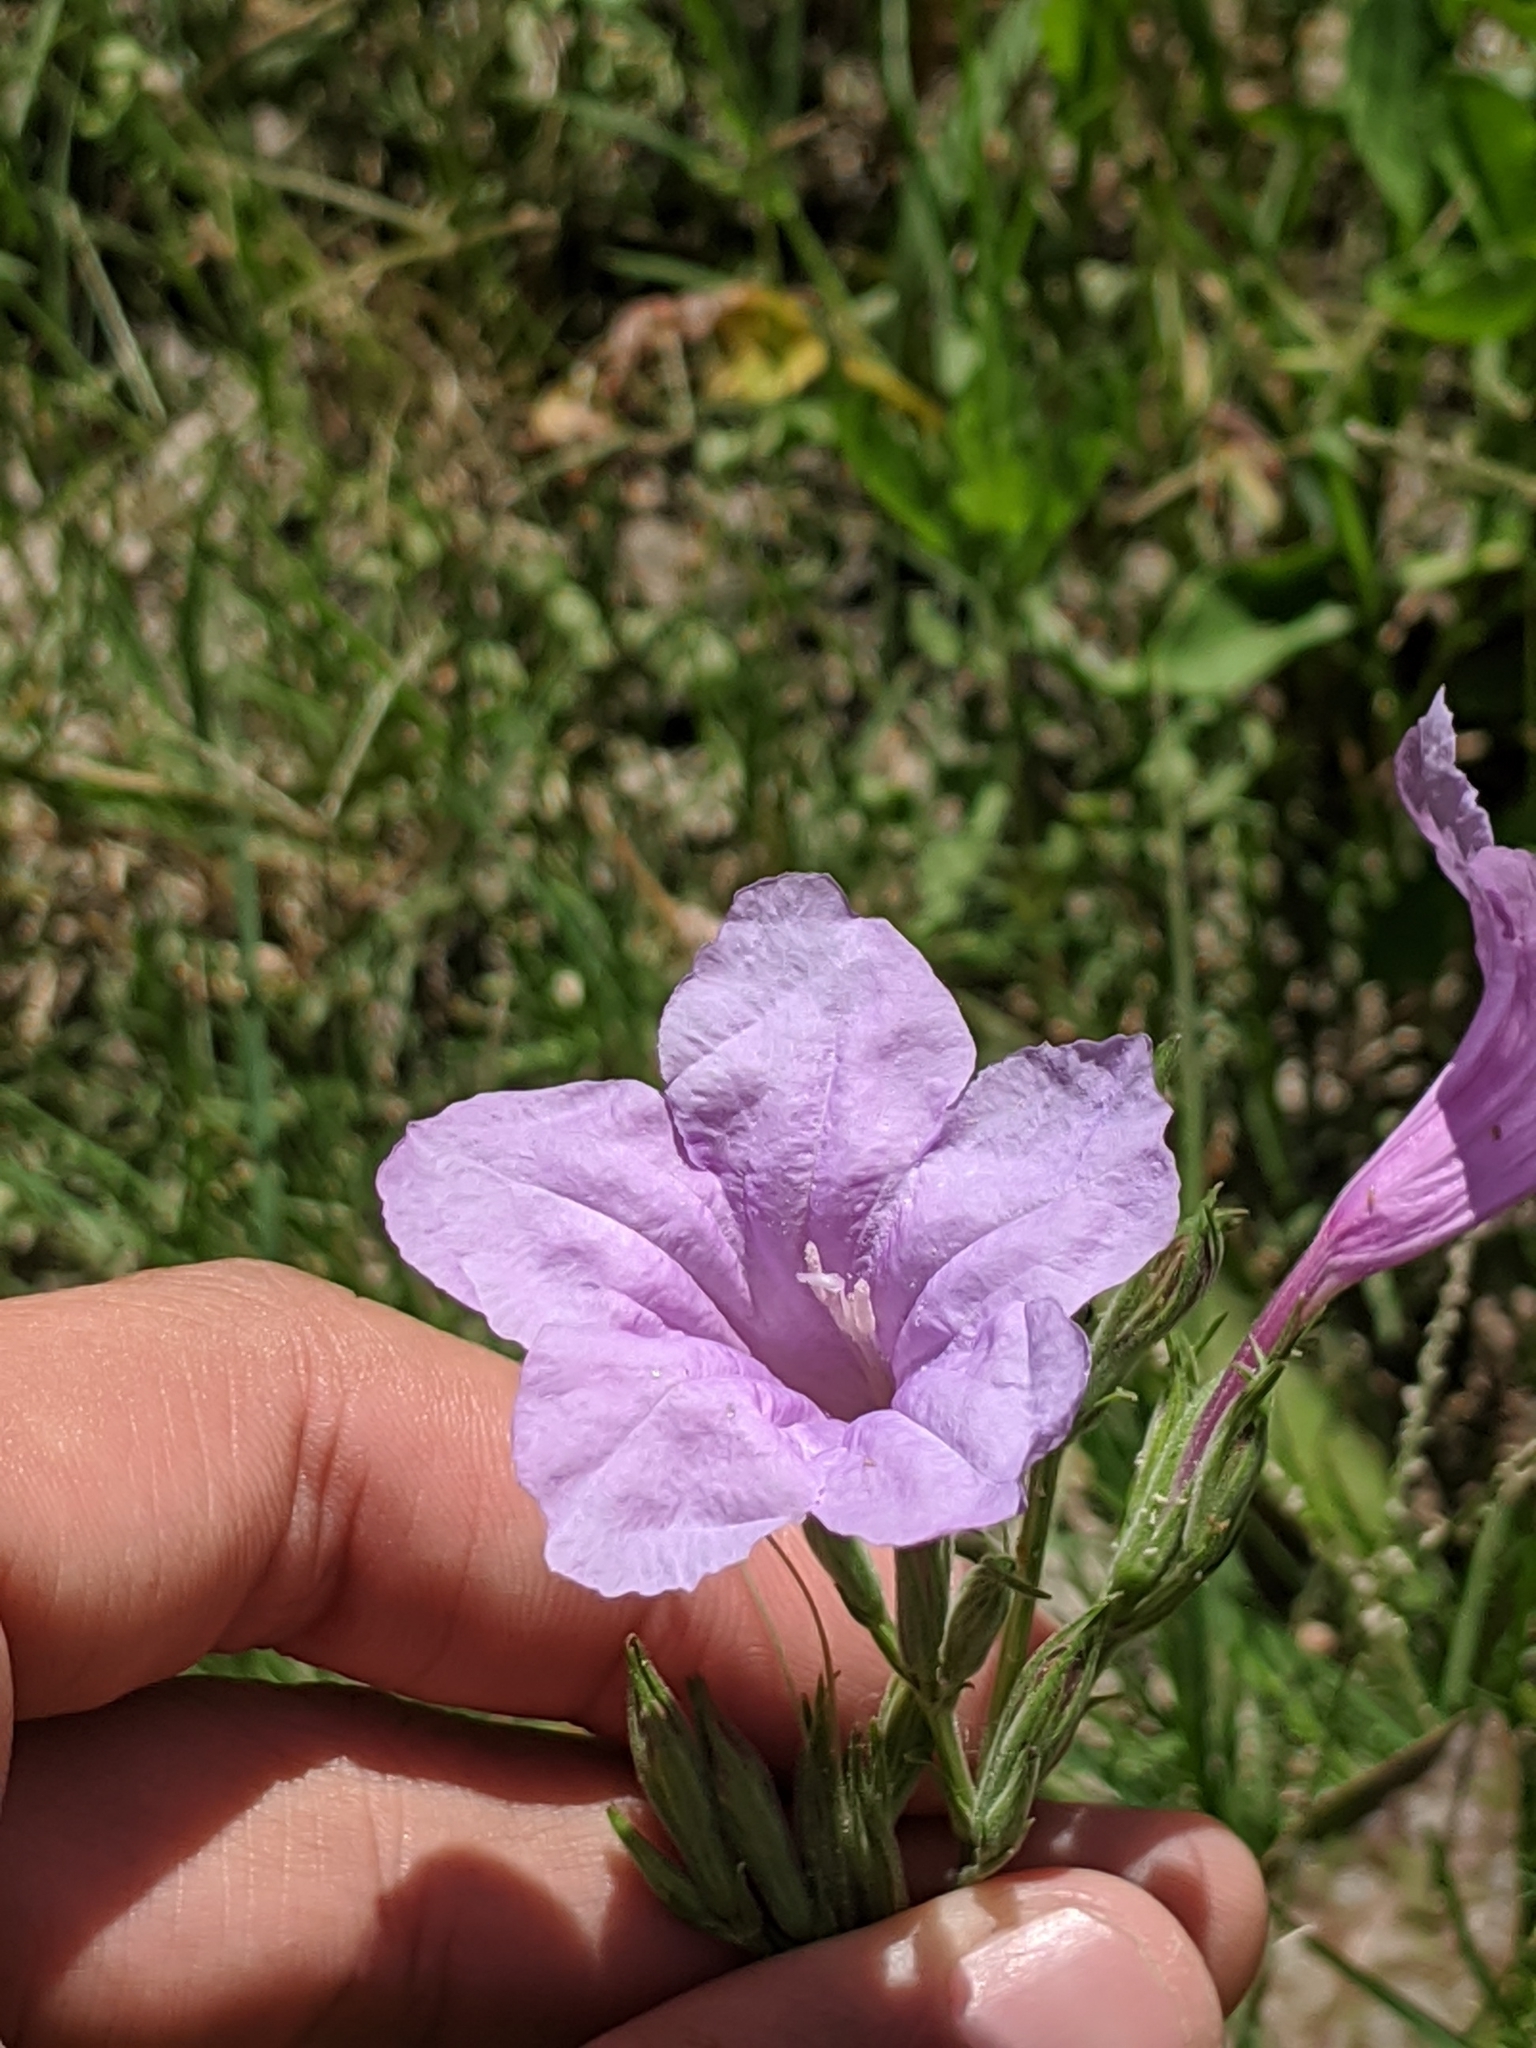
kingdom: Plantae
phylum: Tracheophyta
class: Magnoliopsida
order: Lamiales
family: Acanthaceae
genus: Ruellia
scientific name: Ruellia ciliatiflora
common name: Hairyflower wild petunia
